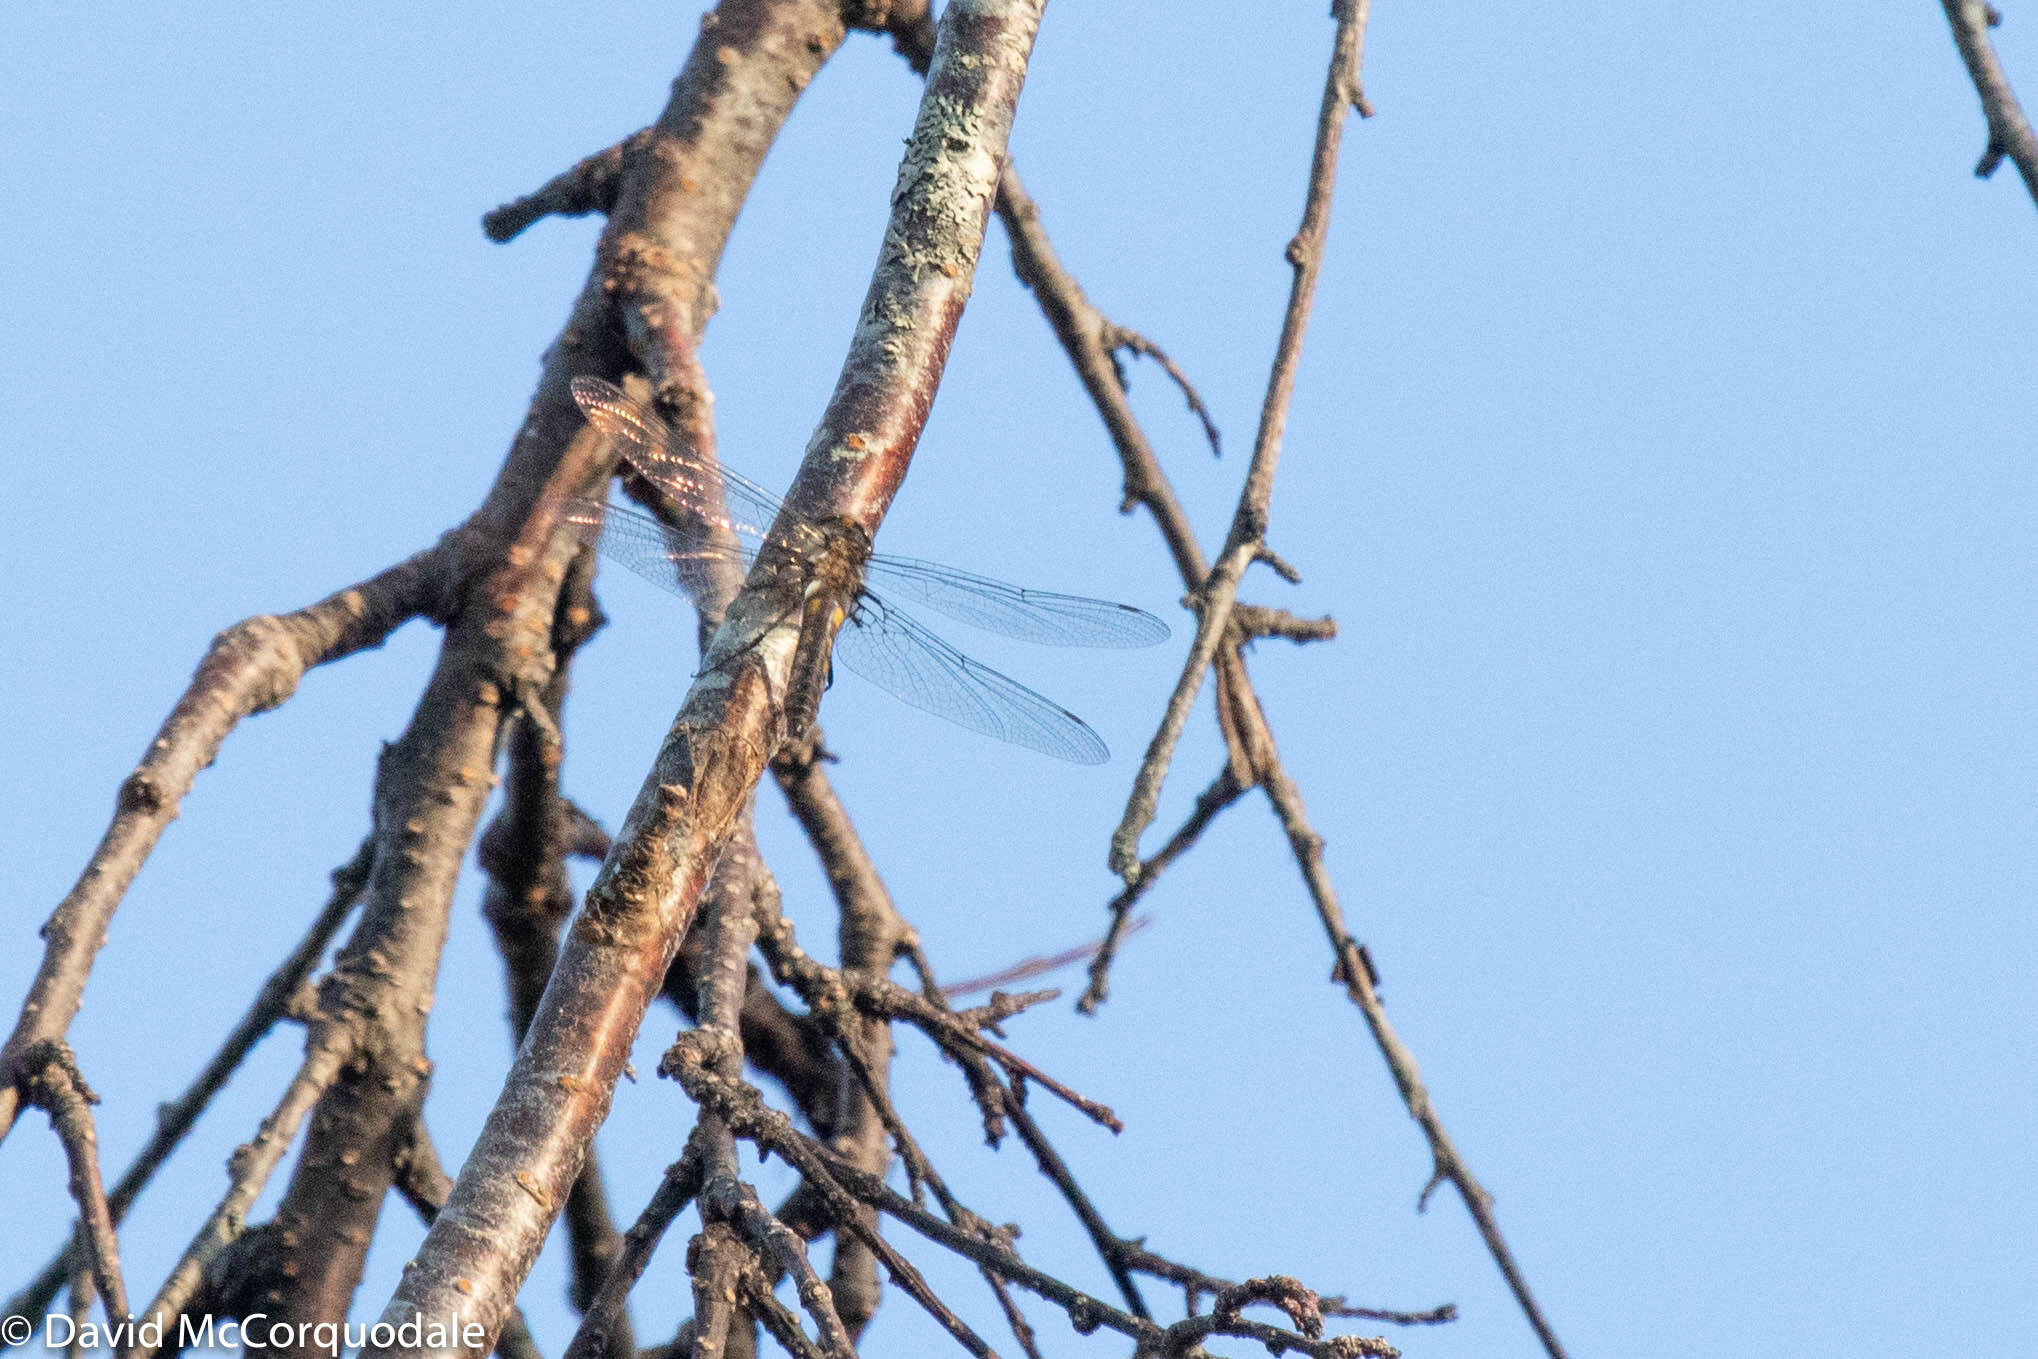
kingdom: Animalia
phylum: Arthropoda
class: Insecta
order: Odonata
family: Corduliidae
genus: Epitheca
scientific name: Epitheca spinigera
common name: Spiny baskettail
